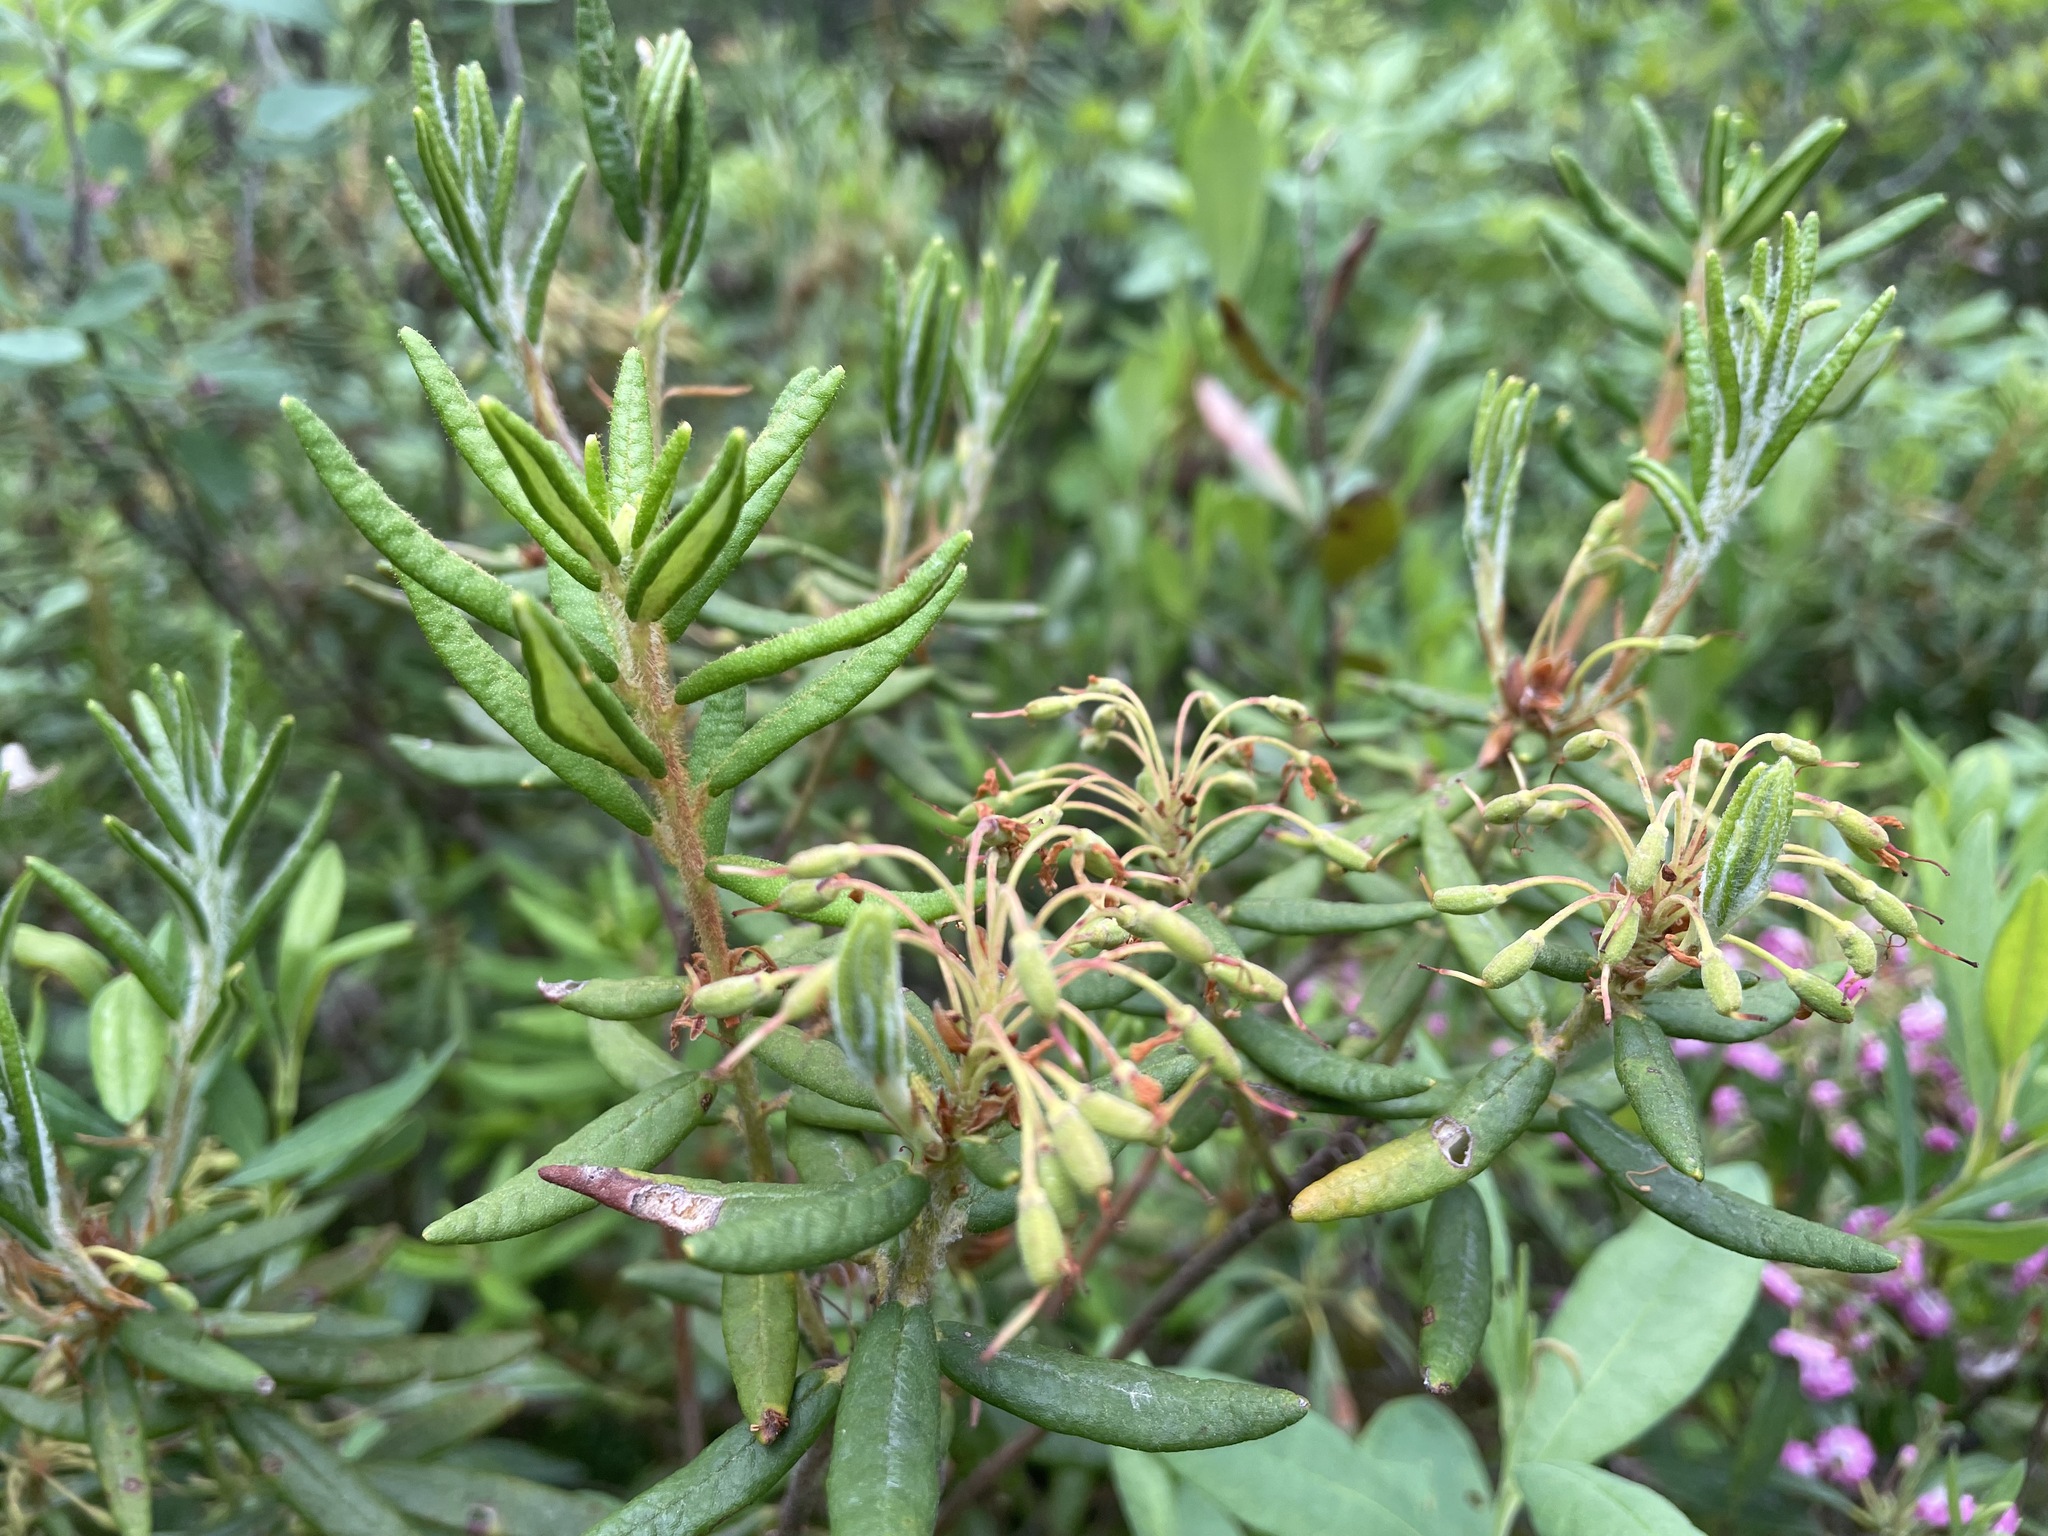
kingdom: Plantae
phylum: Tracheophyta
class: Magnoliopsida
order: Ericales
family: Ericaceae
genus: Rhododendron
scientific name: Rhododendron groenlandicum
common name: Bog labrador tea
